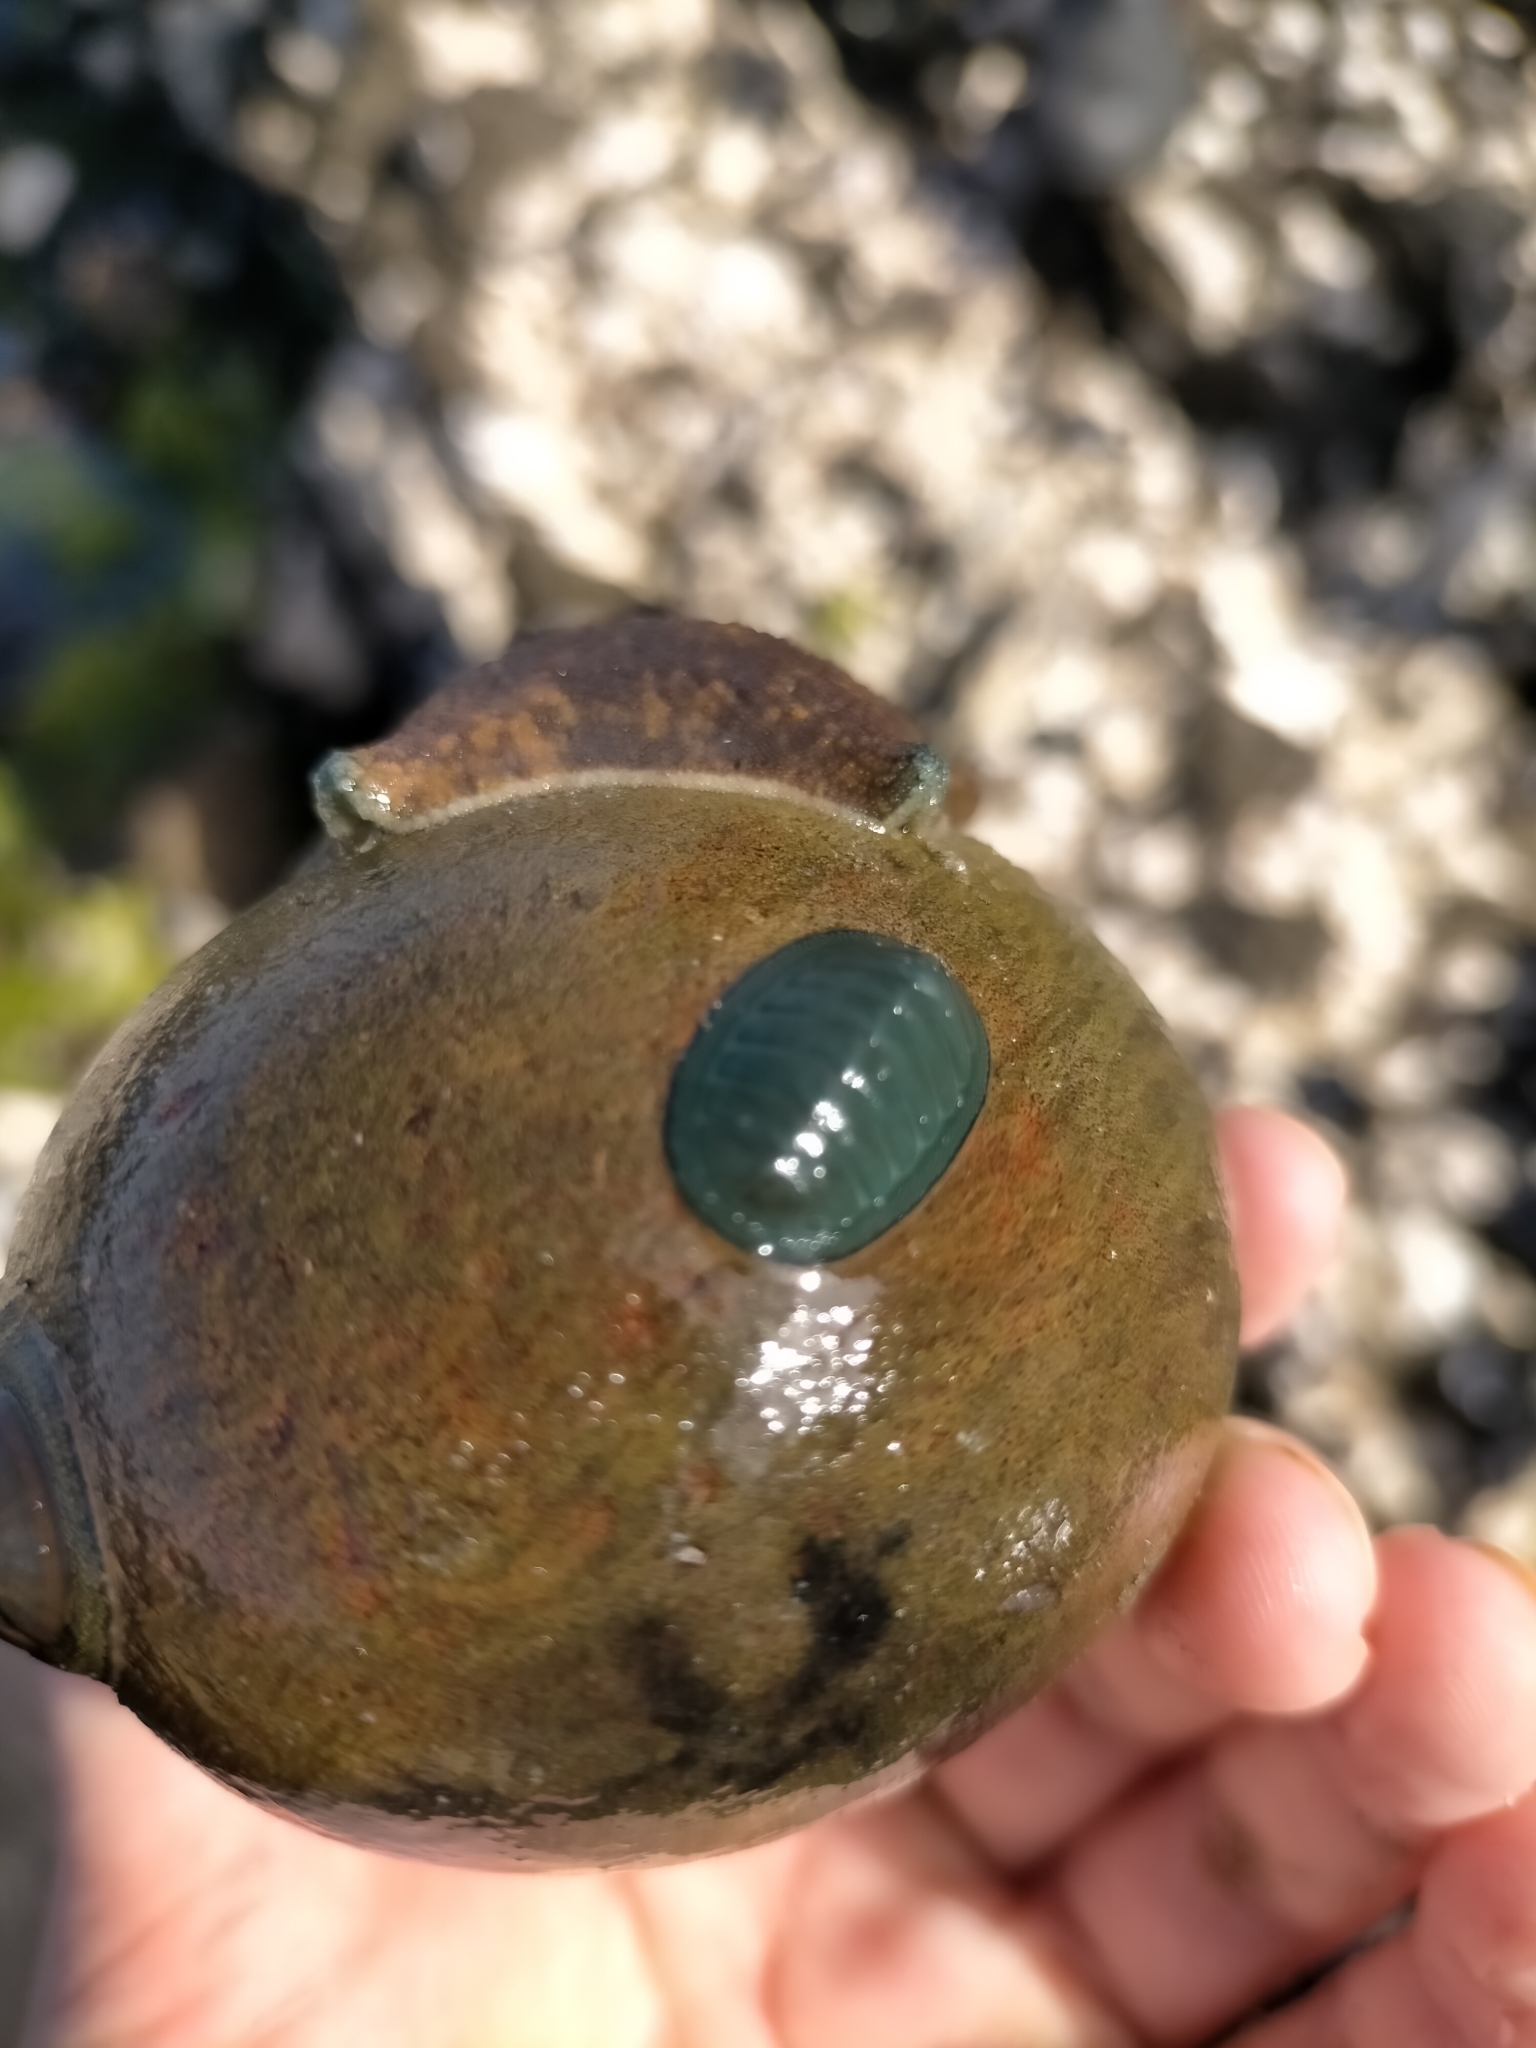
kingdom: Animalia
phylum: Mollusca
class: Polyplacophora
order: Chitonida
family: Chitonidae
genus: Chiton
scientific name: Chiton glaucus
